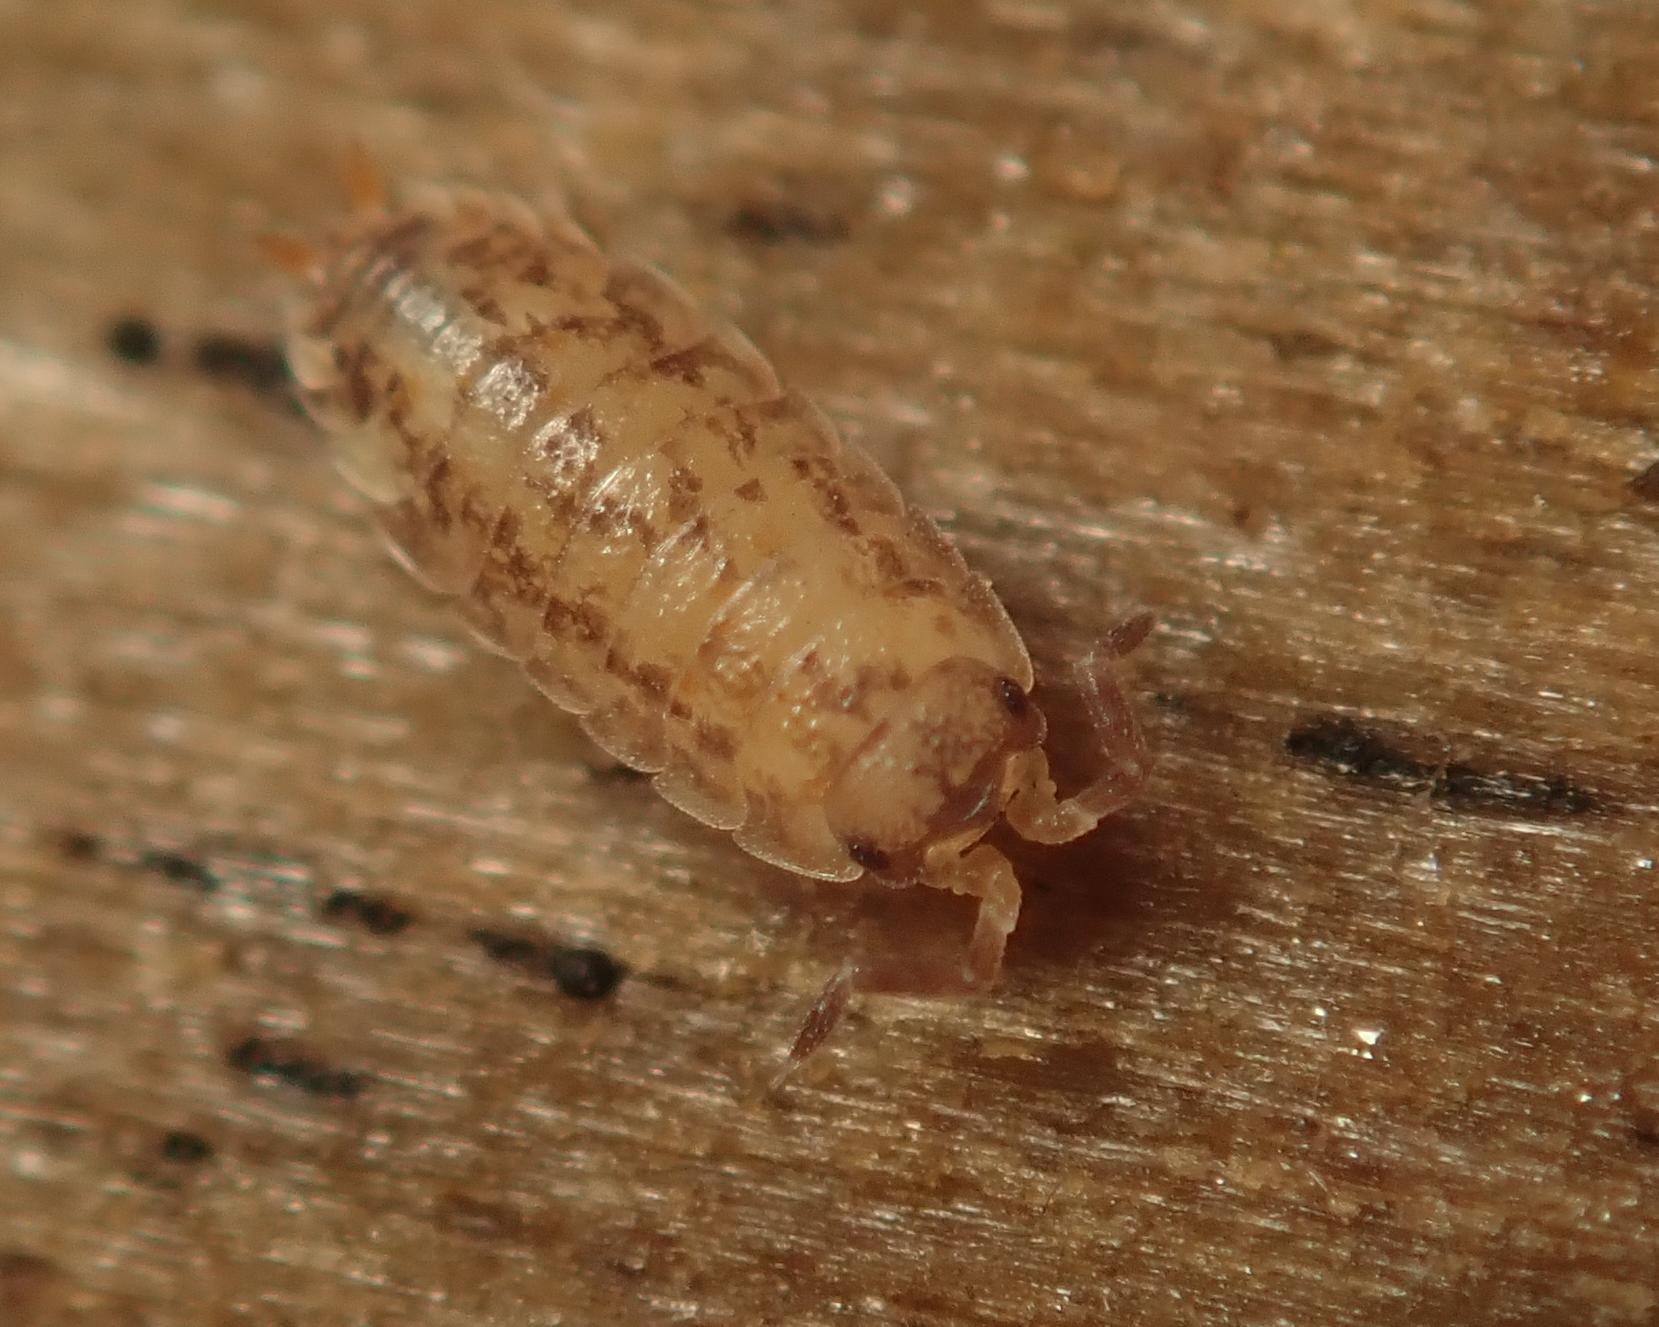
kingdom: Animalia
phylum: Arthropoda
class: Malacostraca
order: Isopoda
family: Porcellionidae
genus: Porcellio
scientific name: Porcellio scaber
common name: Common rough woodlouse
